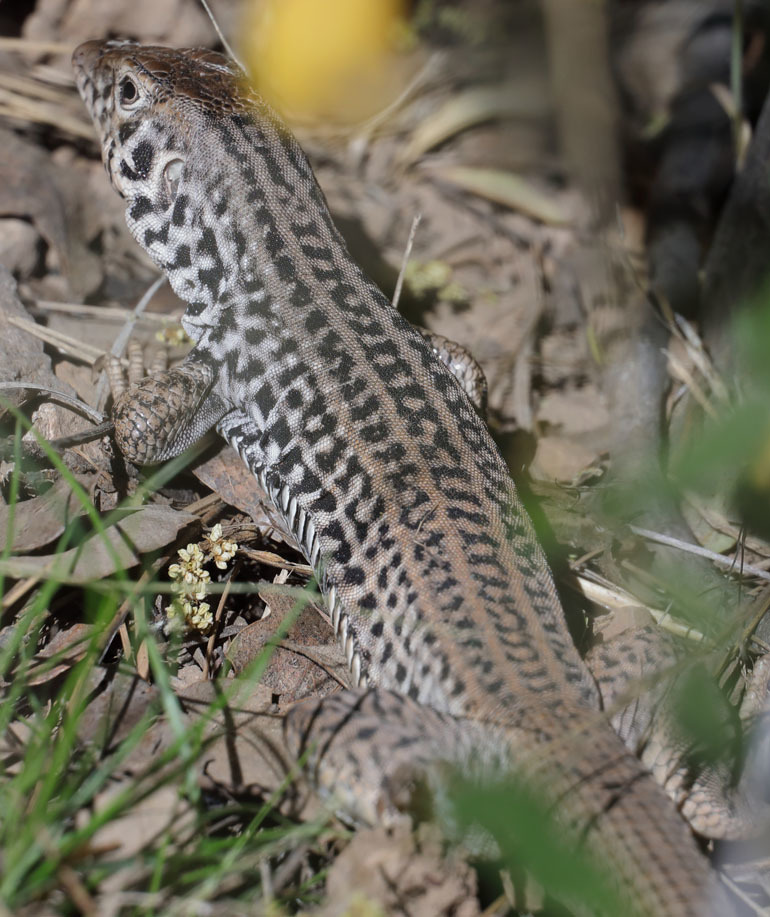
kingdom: Animalia
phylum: Chordata
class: Squamata
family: Teiidae
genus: Aspidoscelis
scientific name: Aspidoscelis tigris
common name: Tiger whiptail
